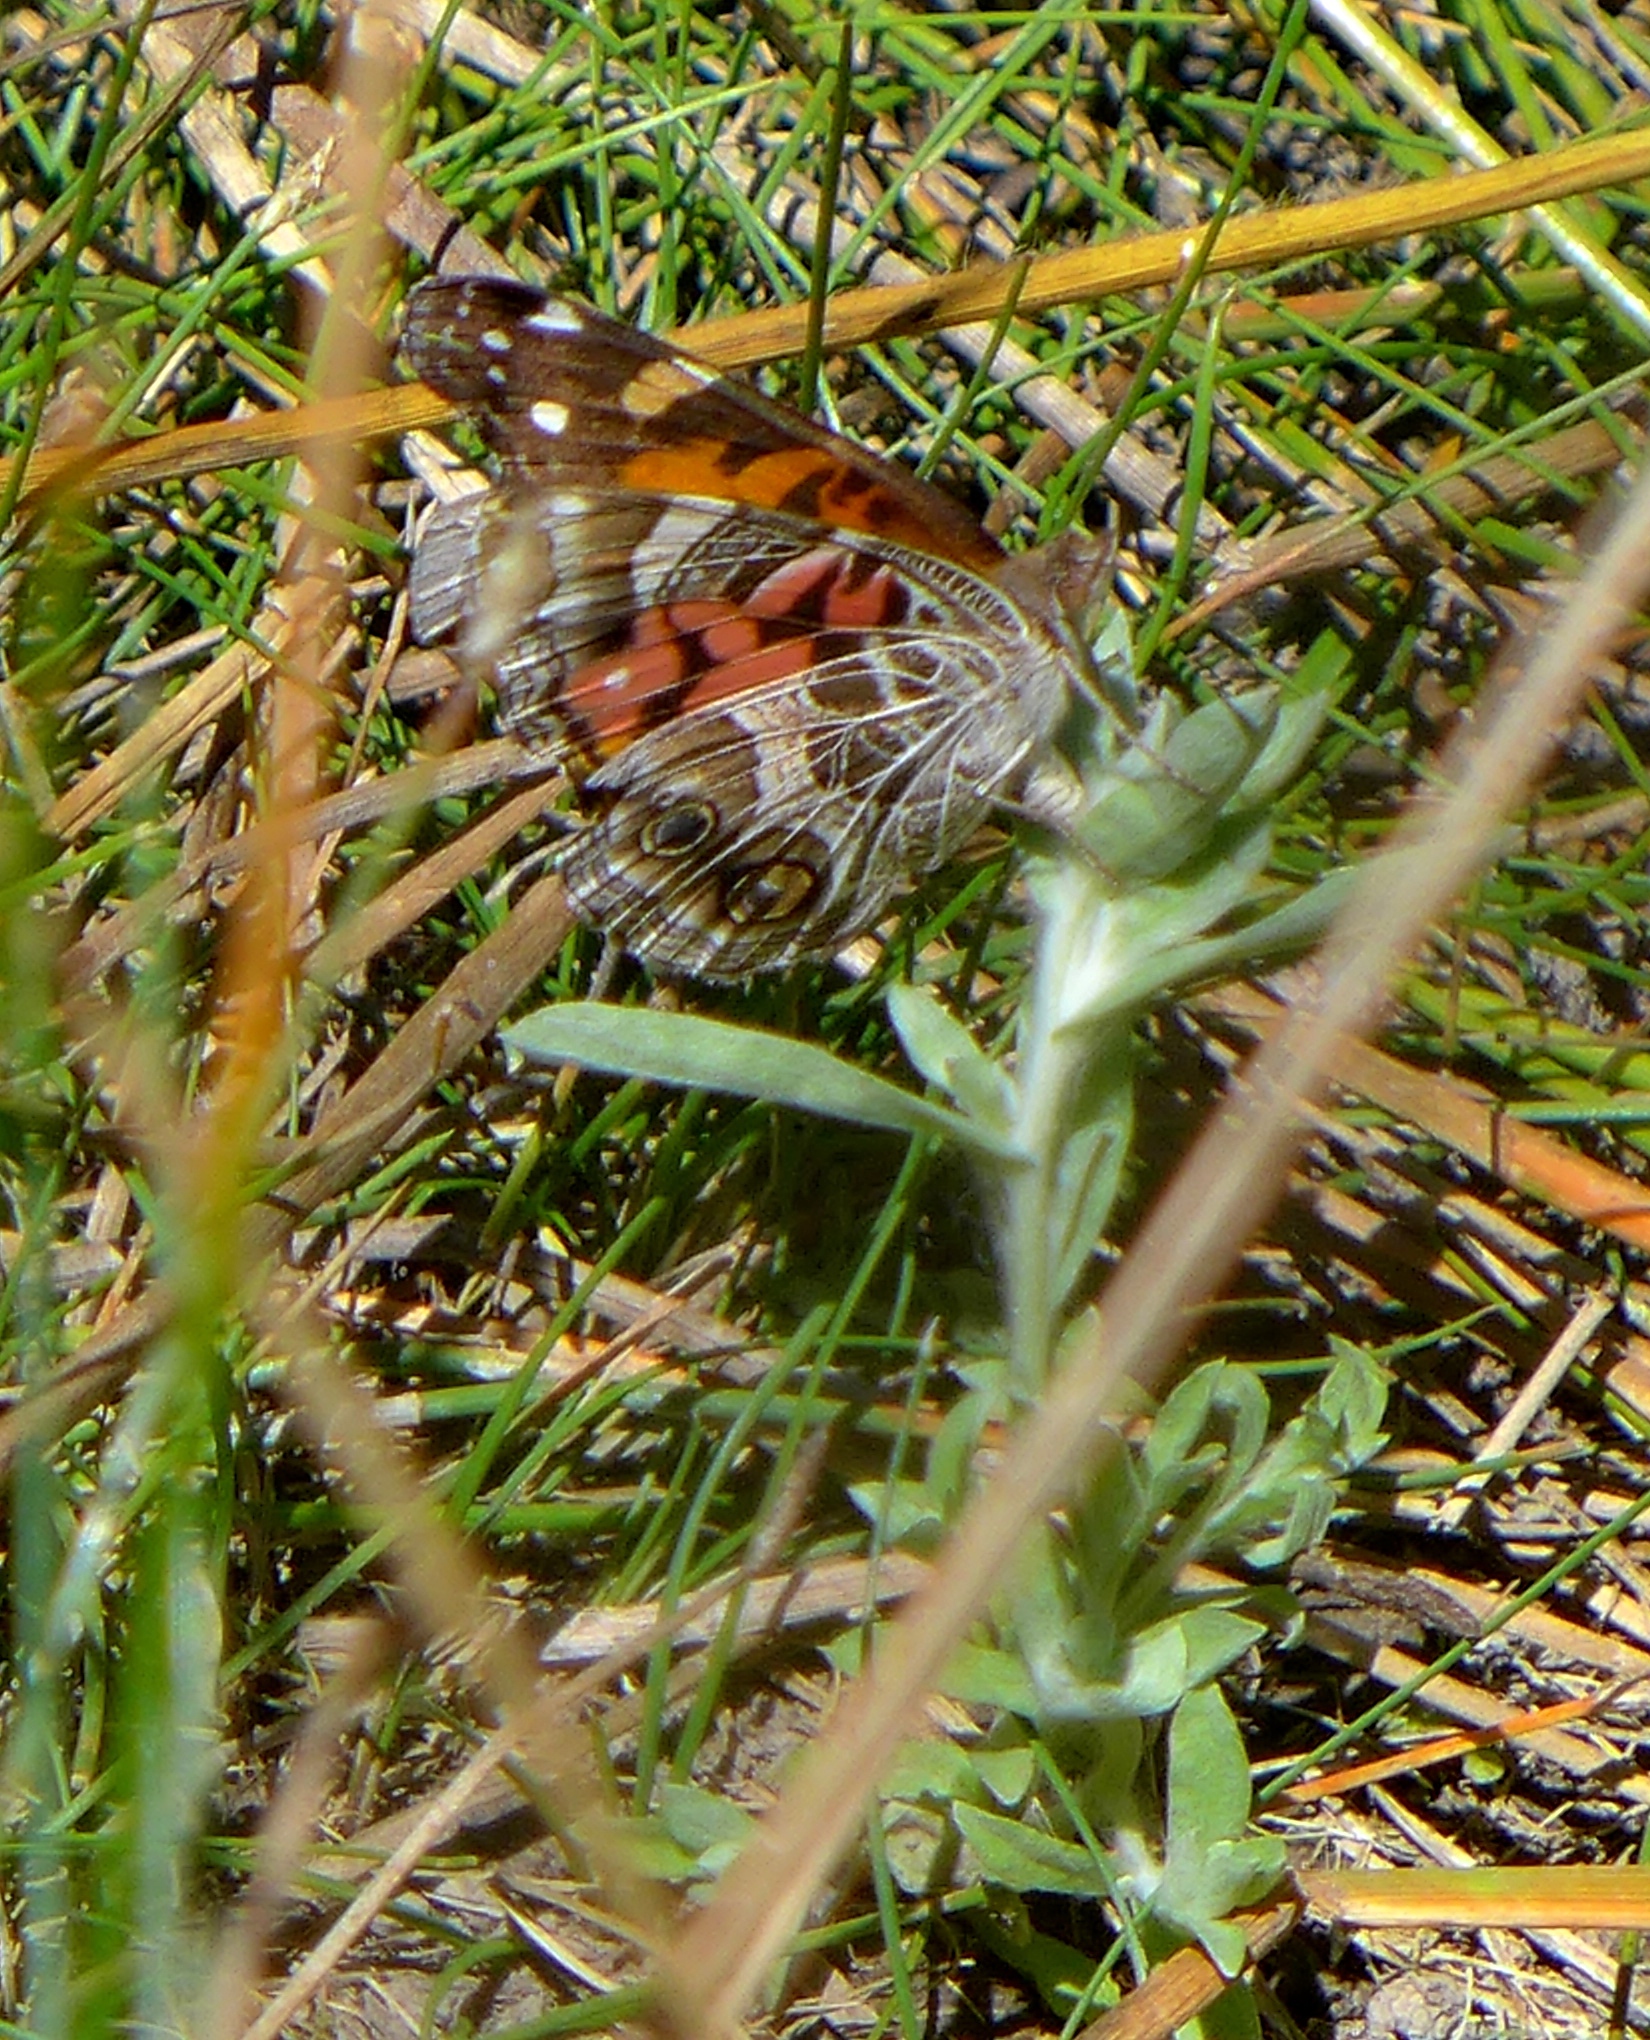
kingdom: Animalia
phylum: Arthropoda
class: Insecta
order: Lepidoptera
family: Nymphalidae
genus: Vanessa
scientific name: Vanessa virginiensis
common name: American lady
